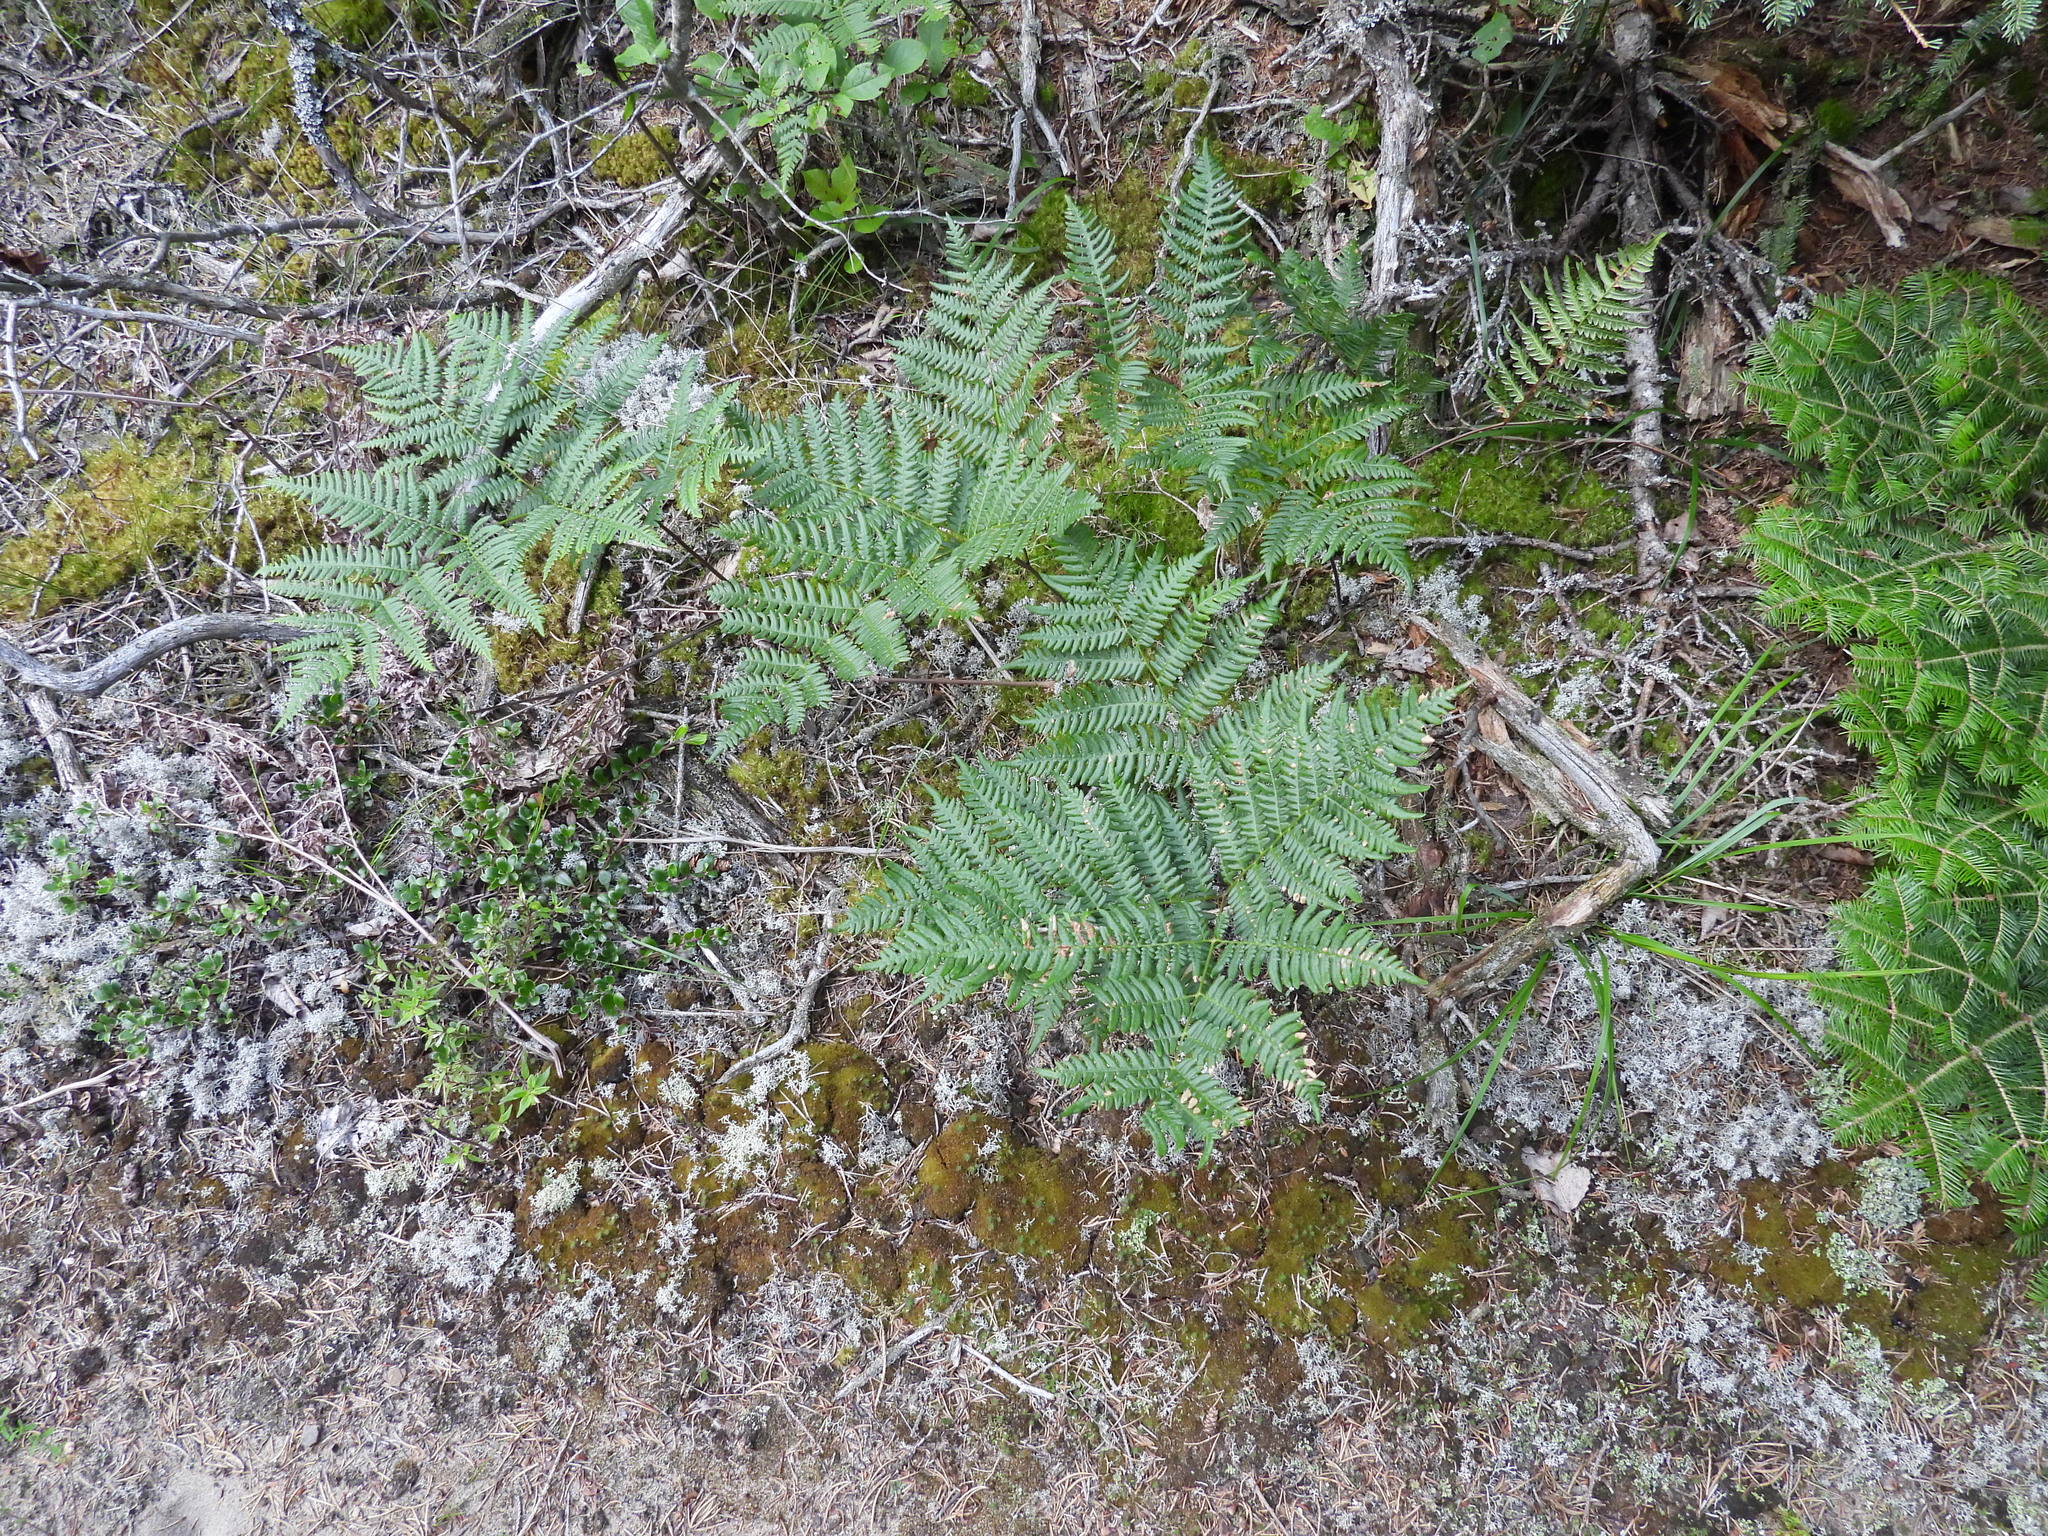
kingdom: Plantae
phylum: Tracheophyta
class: Polypodiopsida
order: Polypodiales
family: Dennstaedtiaceae
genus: Pteridium
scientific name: Pteridium aquilinum
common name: Bracken
